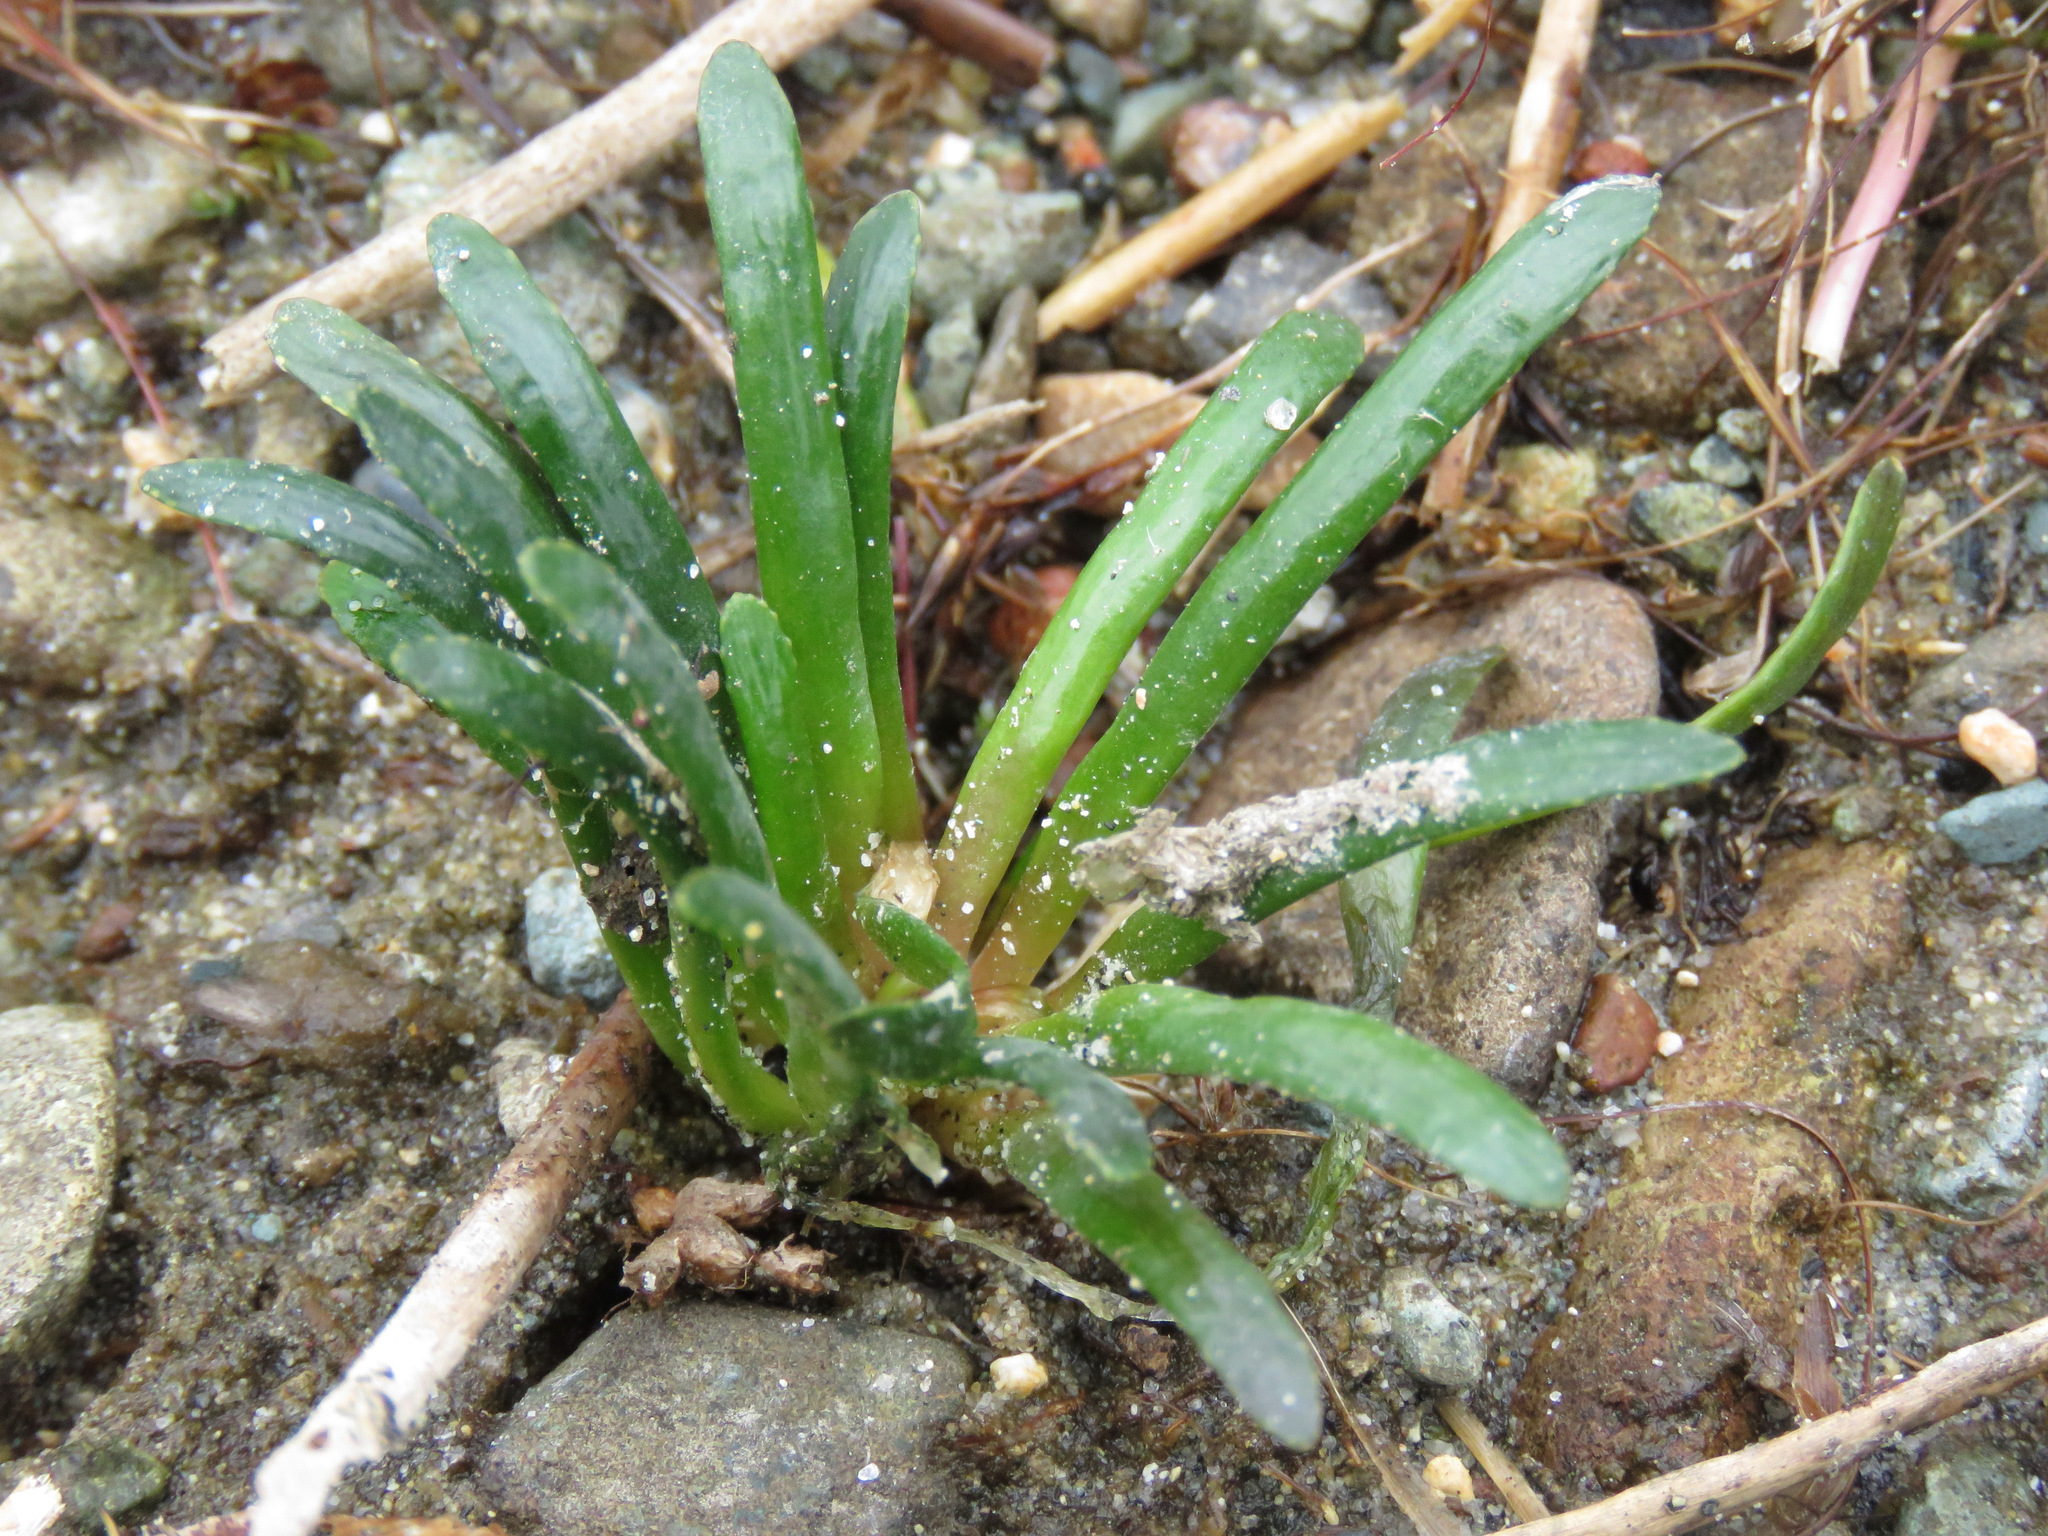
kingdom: Plantae
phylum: Tracheophyta
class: Magnoliopsida
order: Asterales
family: Campanulaceae
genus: Lobelia
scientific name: Lobelia dortmanna
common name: Water lobelia
